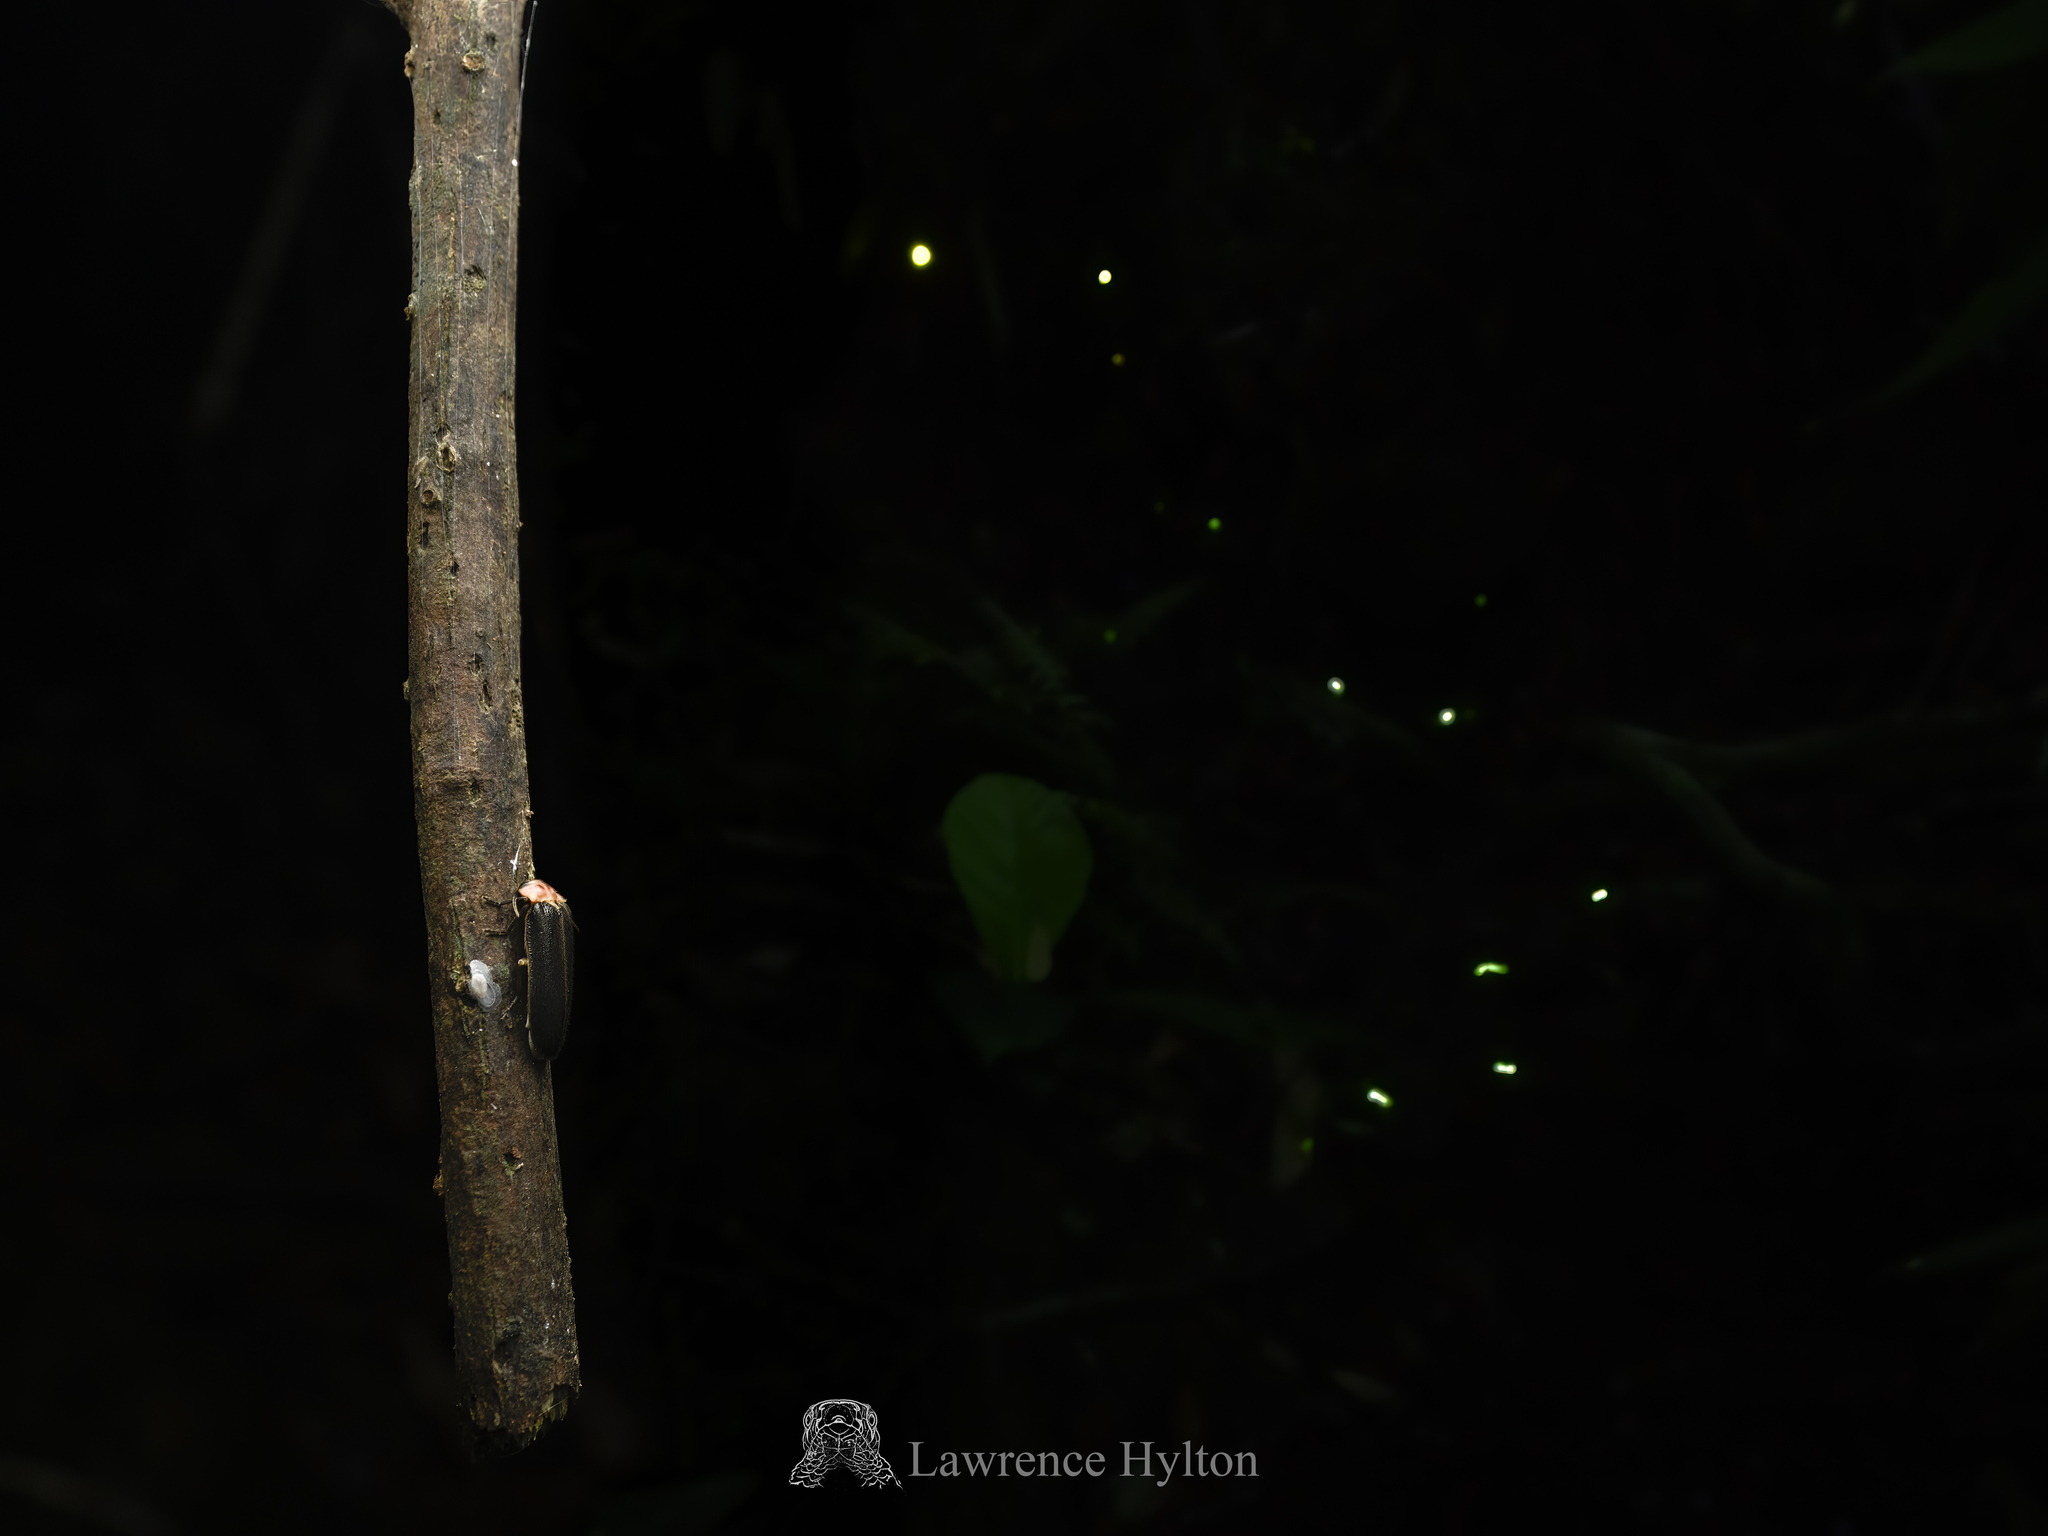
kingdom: Animalia
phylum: Arthropoda
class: Insecta
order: Coleoptera
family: Lampyridae
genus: Pygoluciola
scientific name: Pygoluciola qingyu
